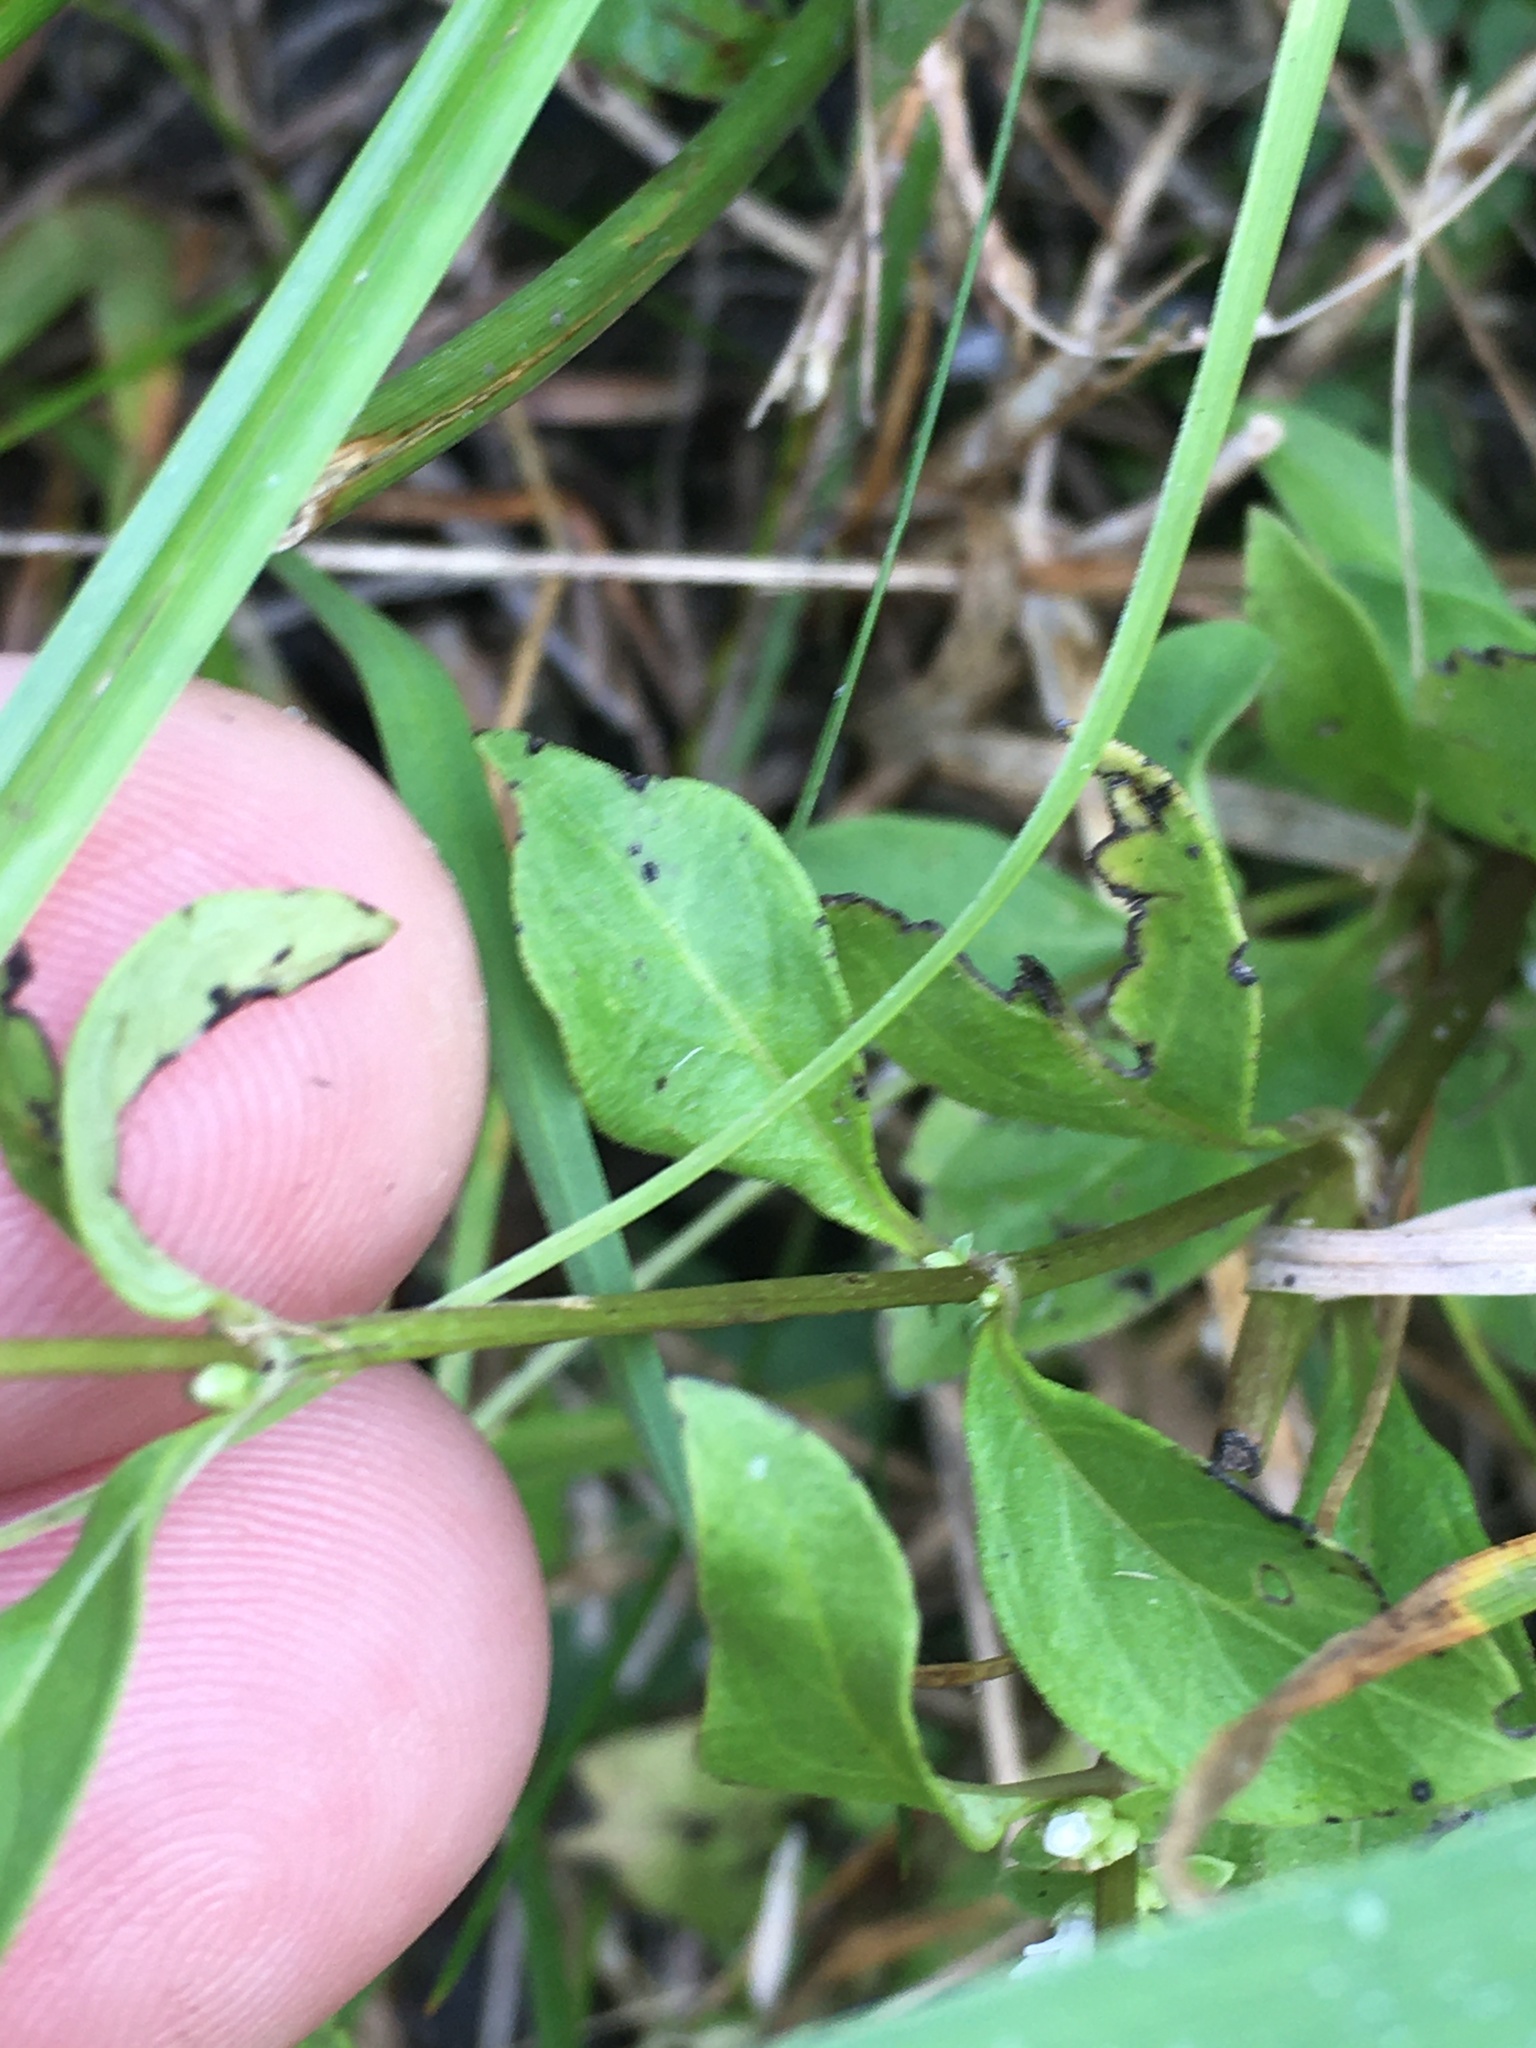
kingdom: Plantae
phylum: Tracheophyta
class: Magnoliopsida
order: Gentianales
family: Loganiaceae
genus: Mitreola
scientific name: Mitreola petiolata
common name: Lax hornpod
